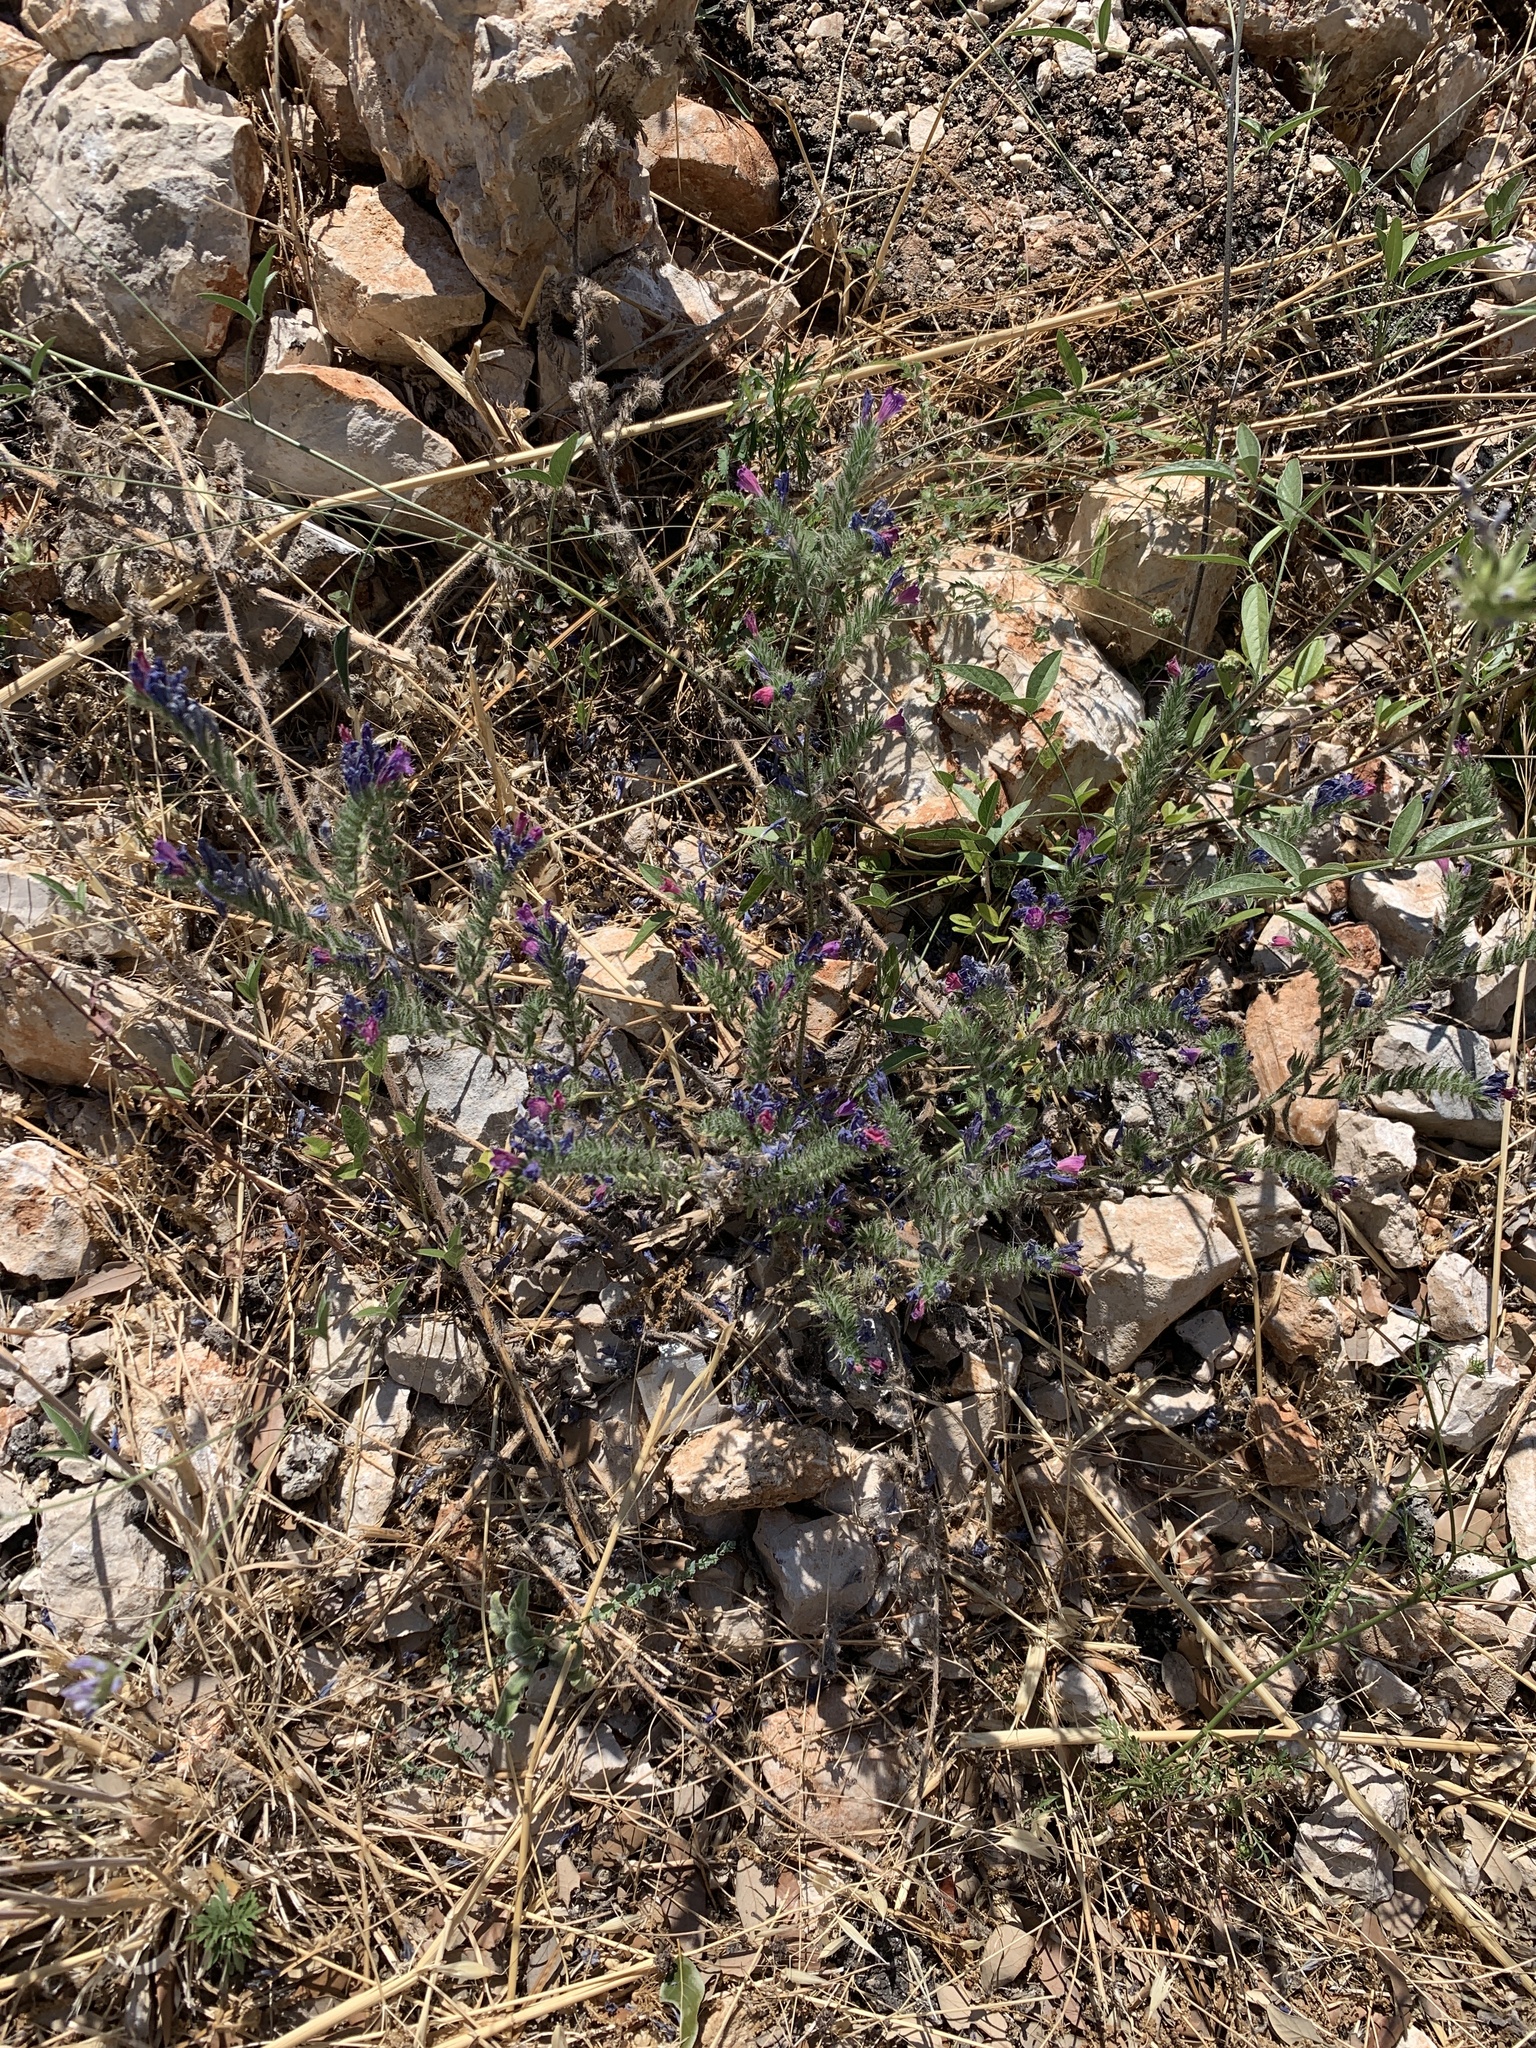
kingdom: Plantae
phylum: Tracheophyta
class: Magnoliopsida
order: Boraginales
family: Boraginaceae
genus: Echium
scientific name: Echium vulgare
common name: Common viper's bugloss
